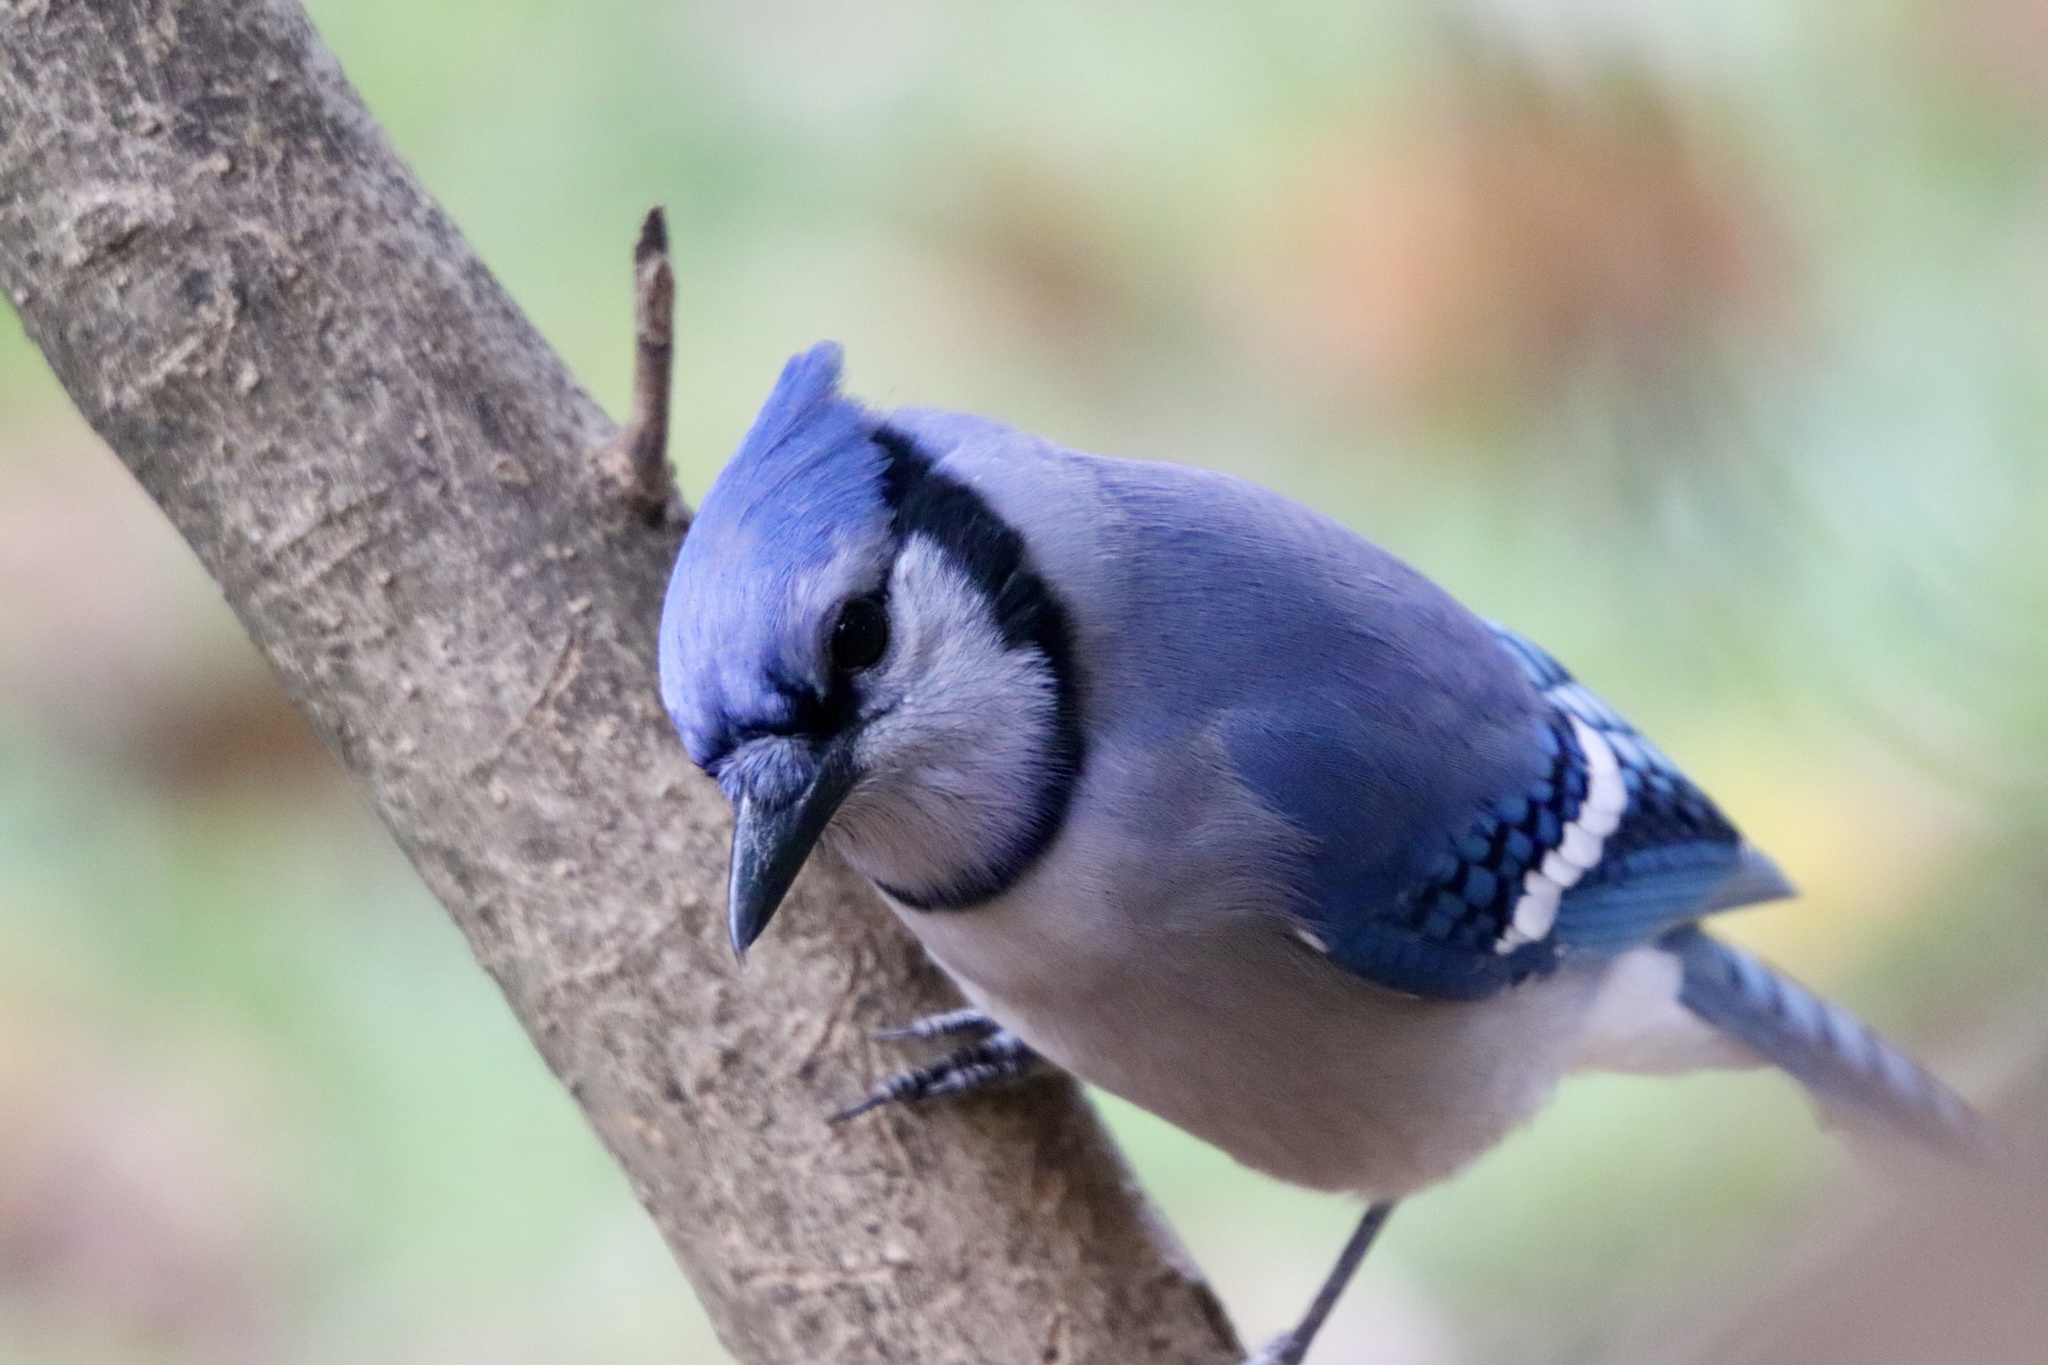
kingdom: Animalia
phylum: Chordata
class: Aves
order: Passeriformes
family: Corvidae
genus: Cyanocitta
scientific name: Cyanocitta cristata
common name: Blue jay
